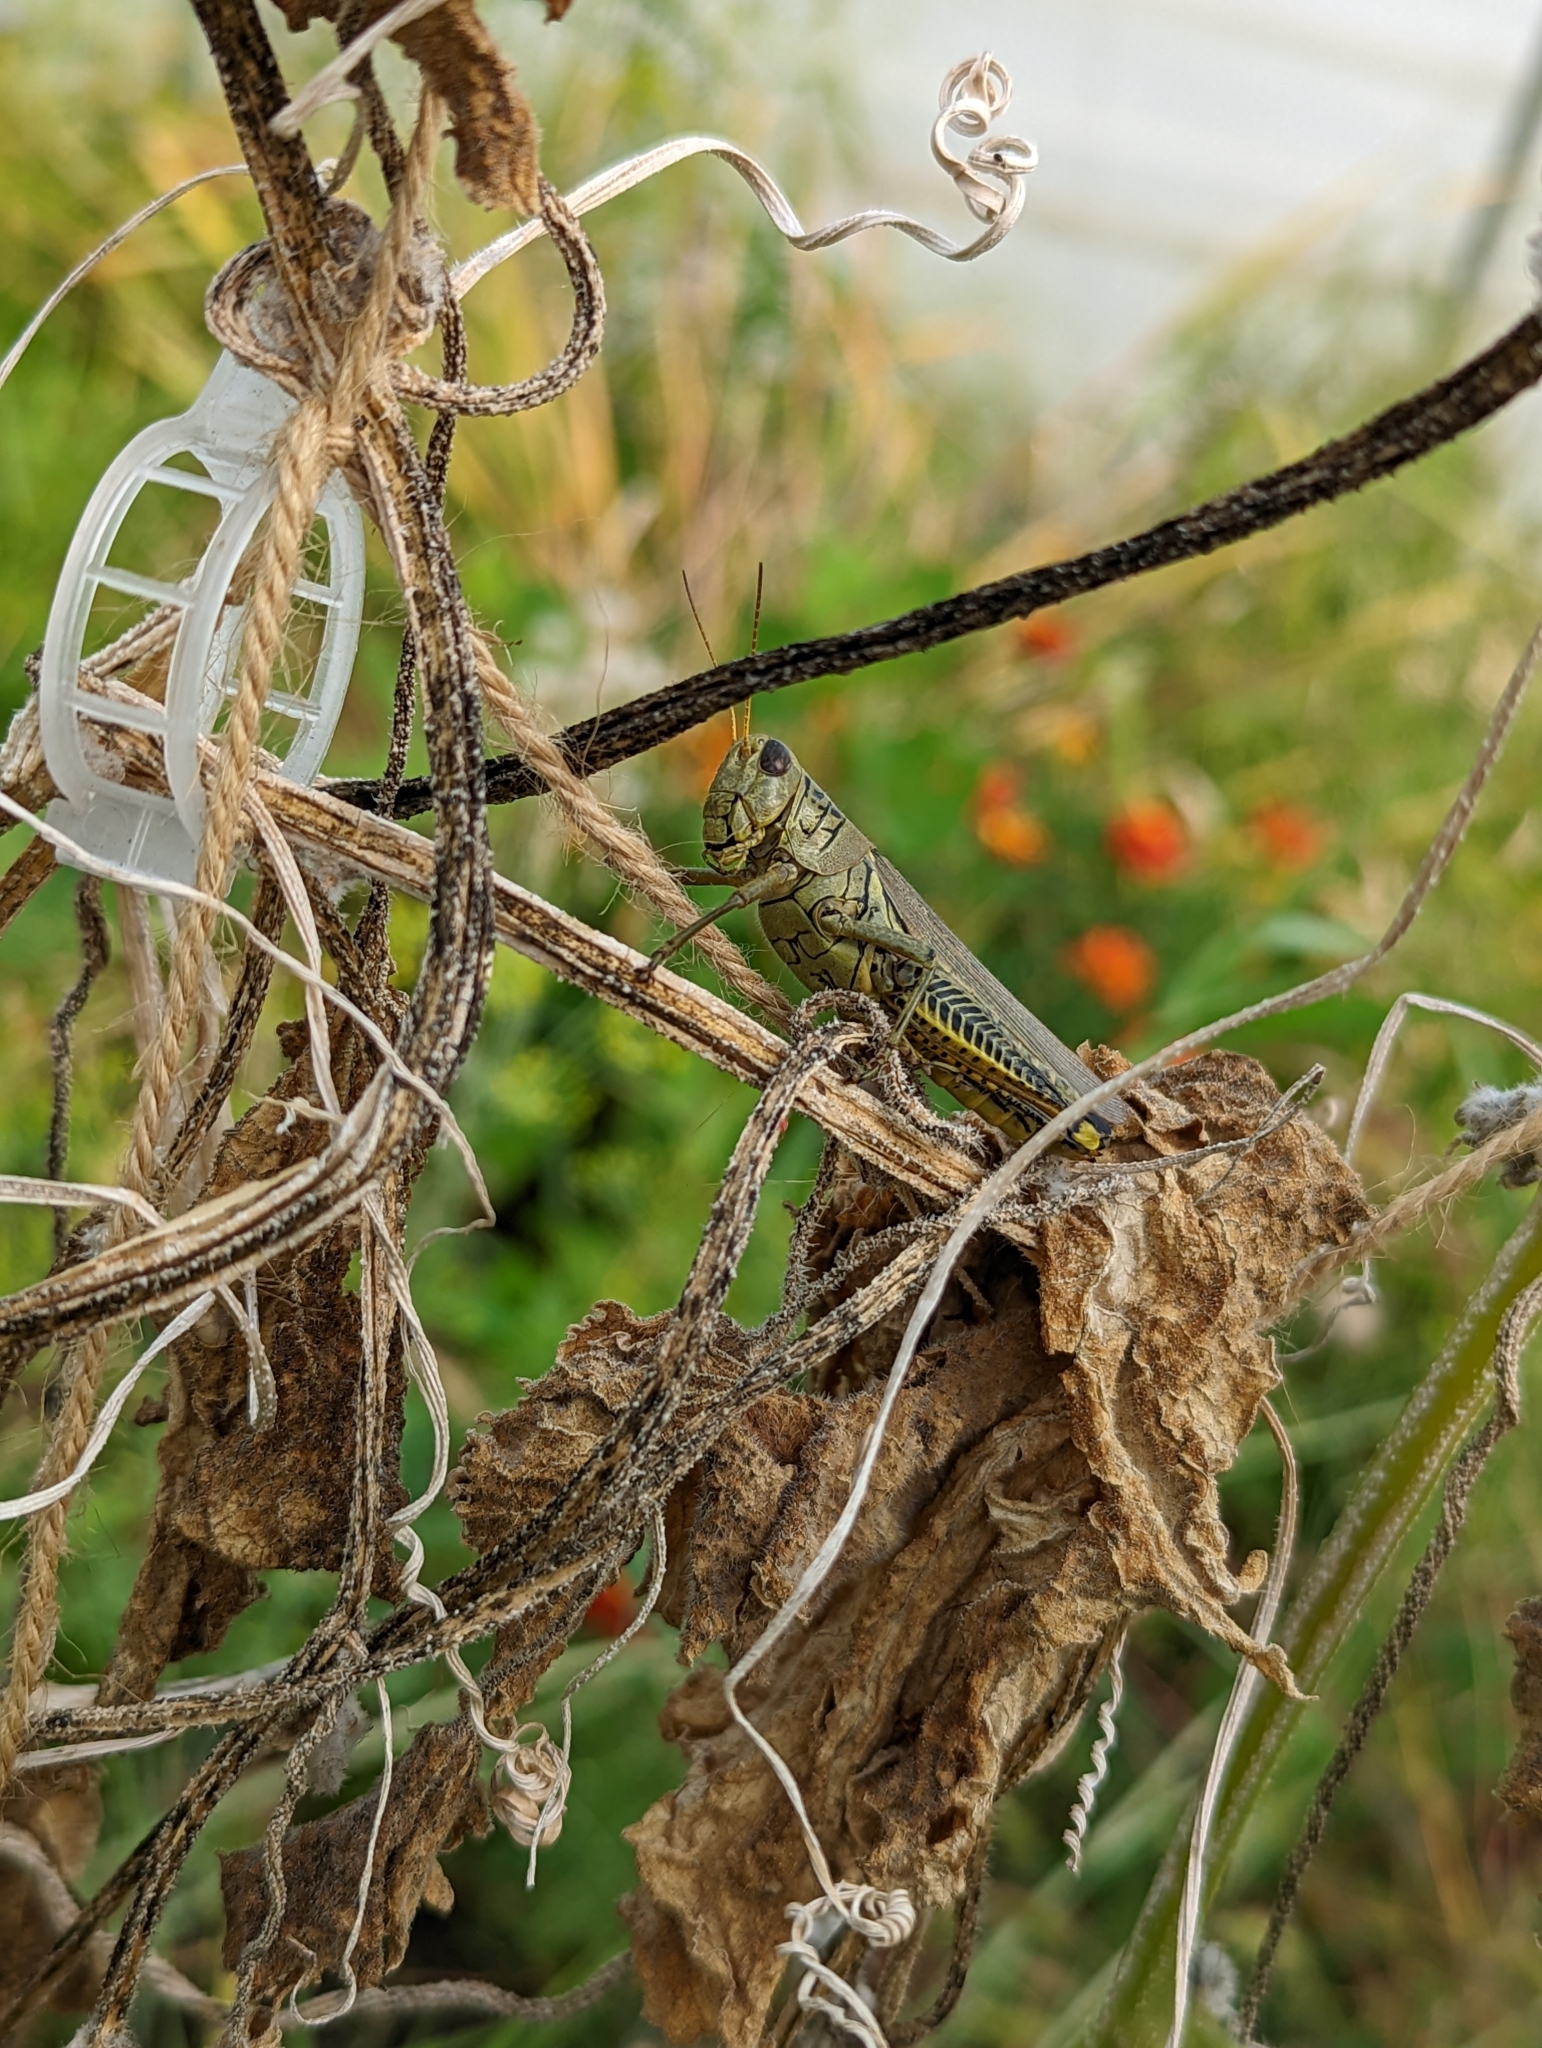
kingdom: Animalia
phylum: Arthropoda
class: Insecta
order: Orthoptera
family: Acrididae
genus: Melanoplus
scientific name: Melanoplus differentialis
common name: Differential grasshopper
